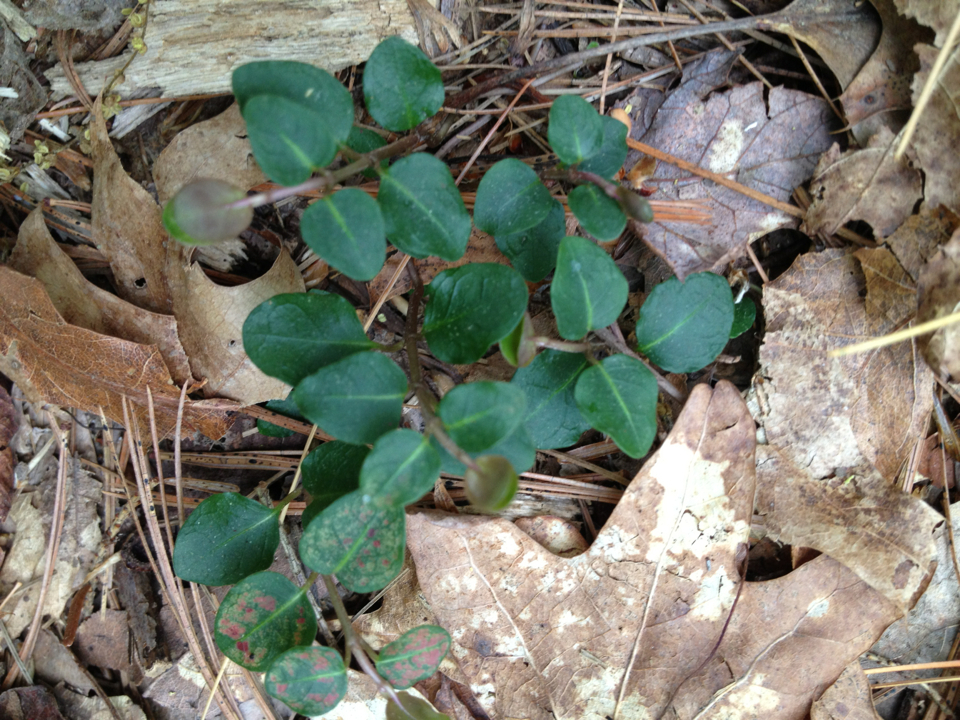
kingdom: Plantae
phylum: Tracheophyta
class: Magnoliopsida
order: Gentianales
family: Rubiaceae
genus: Mitchella
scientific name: Mitchella repens
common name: Partridge-berry
